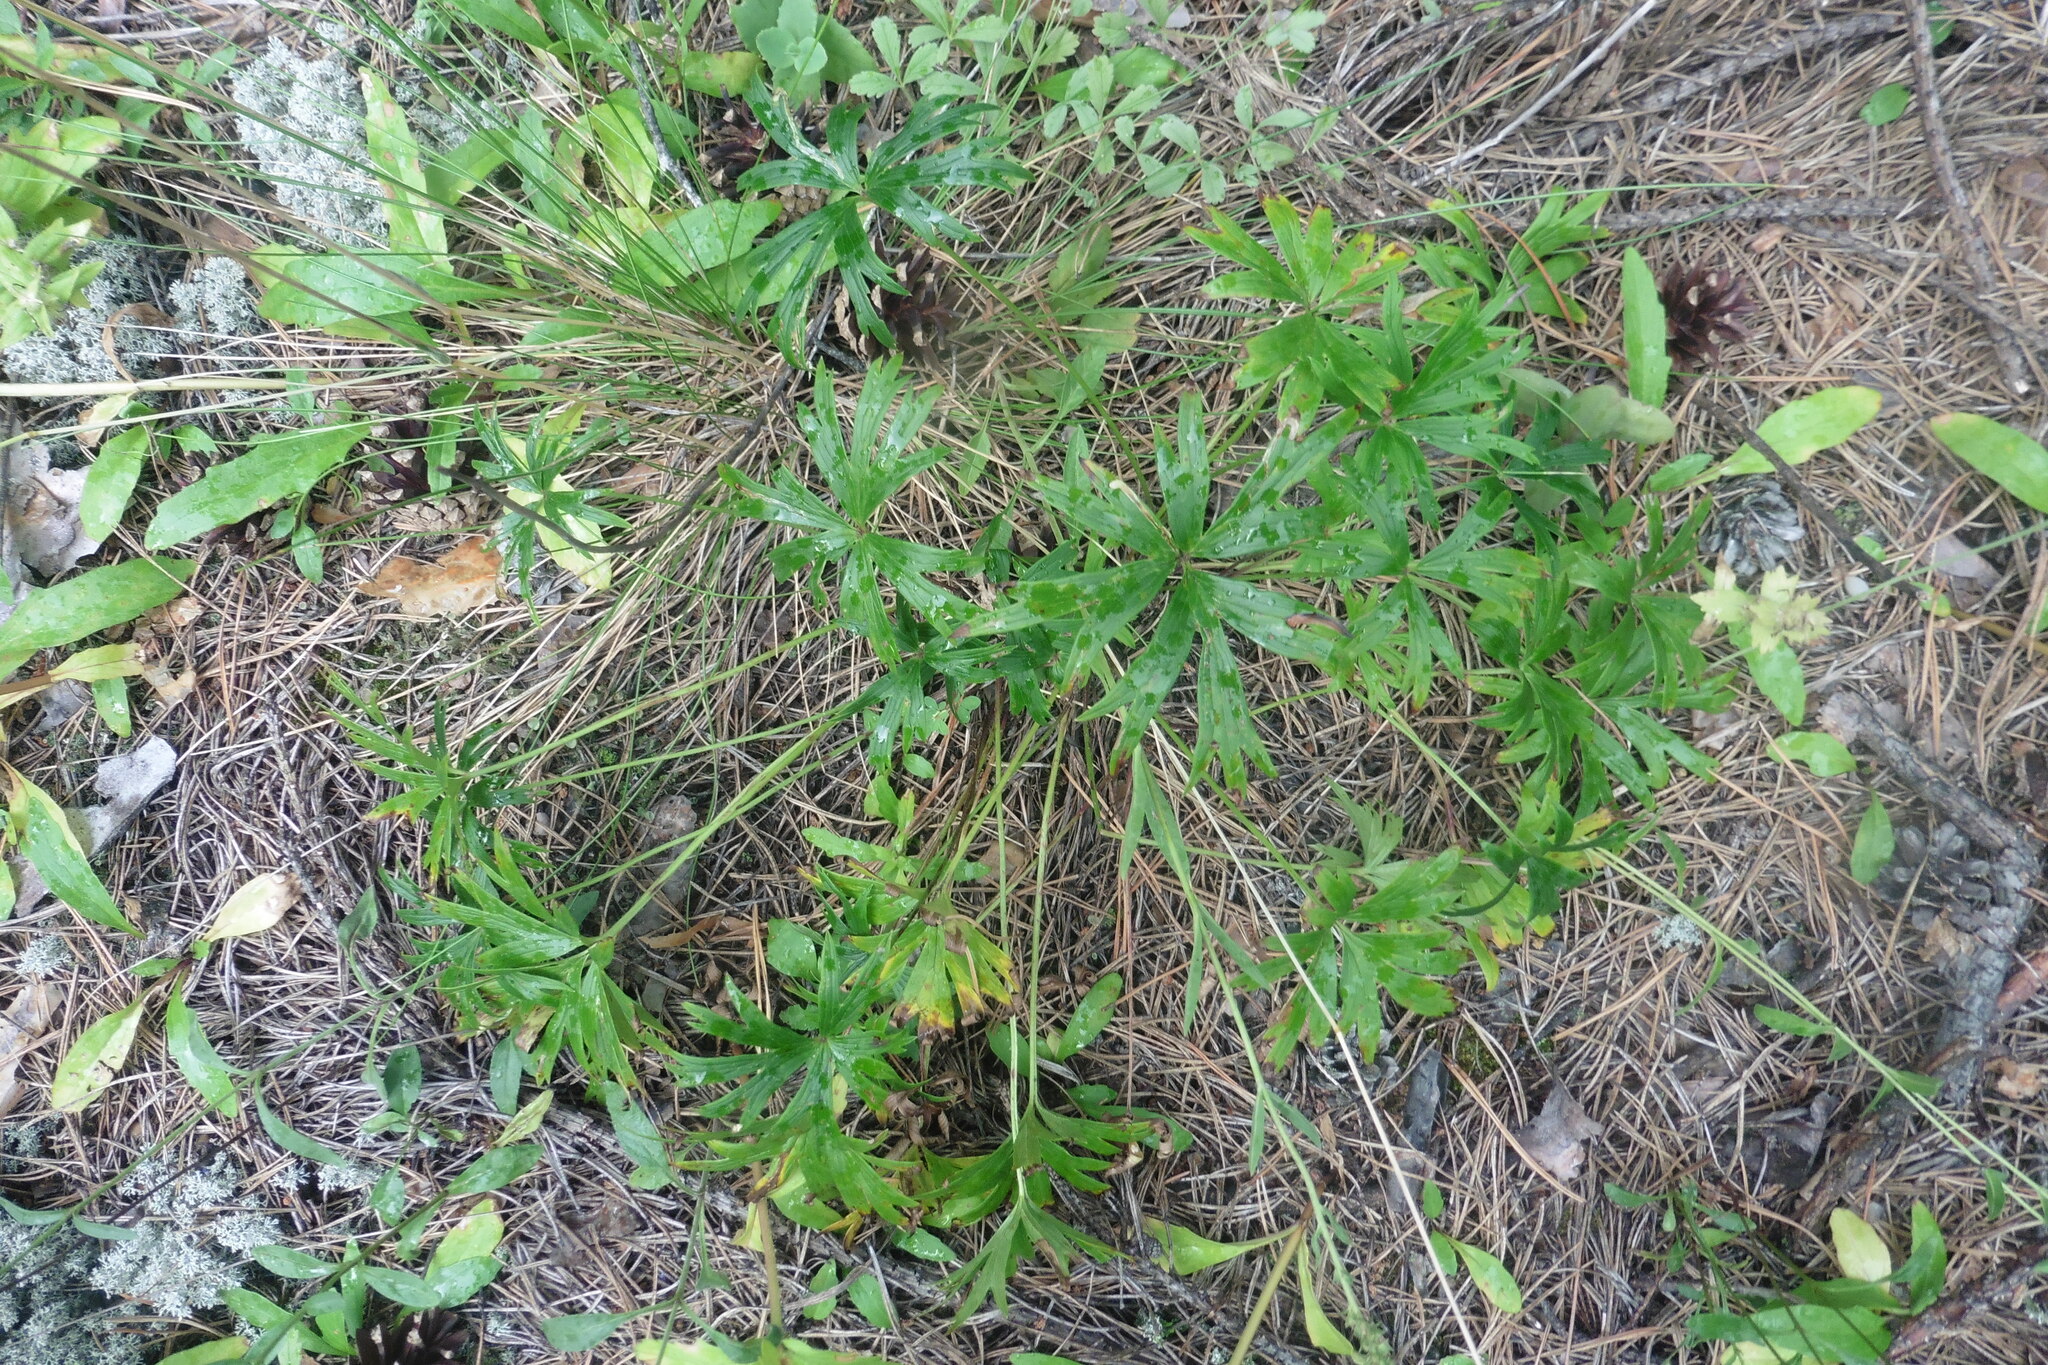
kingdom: Plantae
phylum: Tracheophyta
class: Magnoliopsida
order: Ranunculales
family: Ranunculaceae
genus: Pulsatilla
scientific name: Pulsatilla patens
